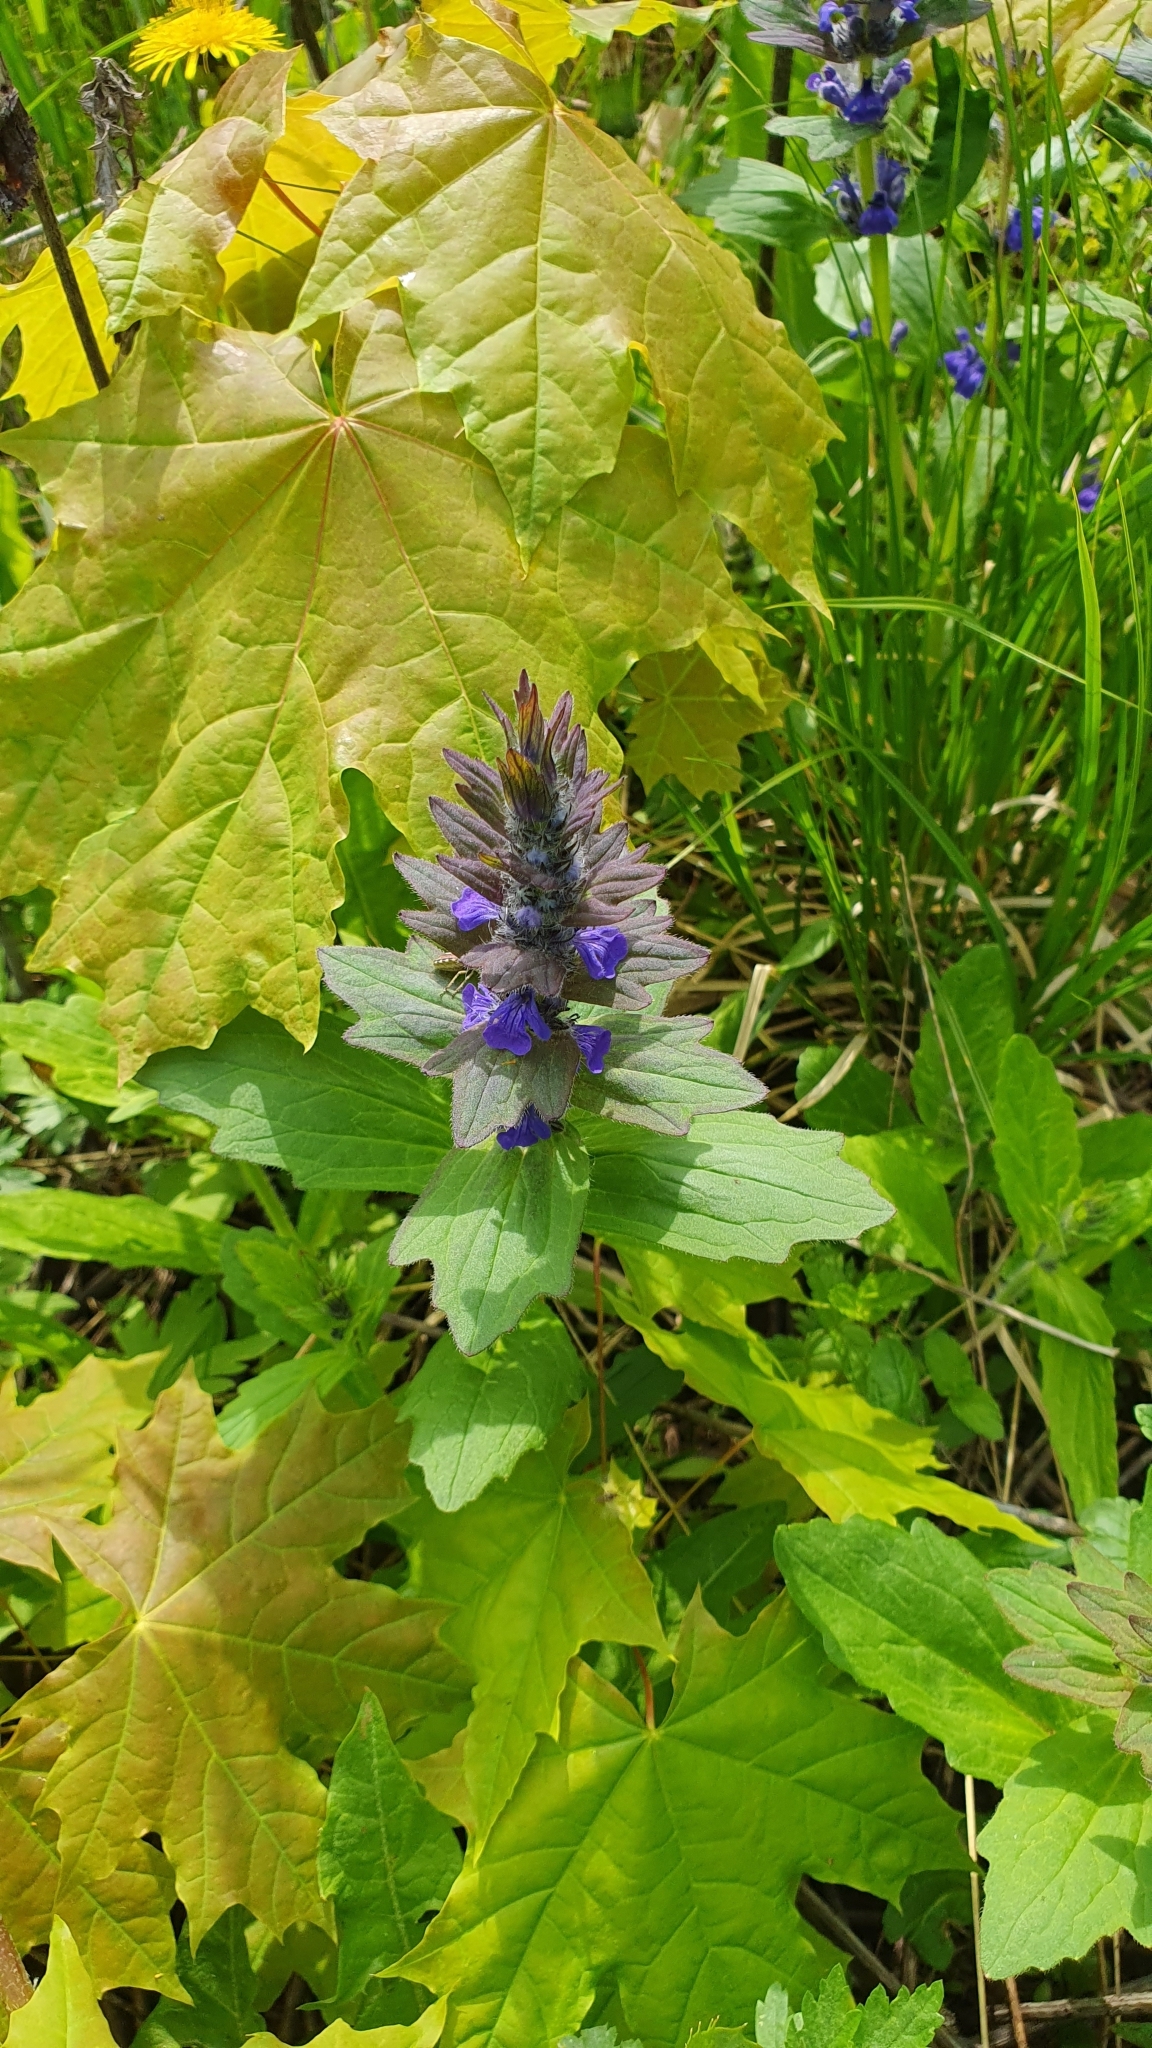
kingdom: Plantae
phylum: Tracheophyta
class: Magnoliopsida
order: Lamiales
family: Lamiaceae
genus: Ajuga
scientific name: Ajuga genevensis
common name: Blue bugle
